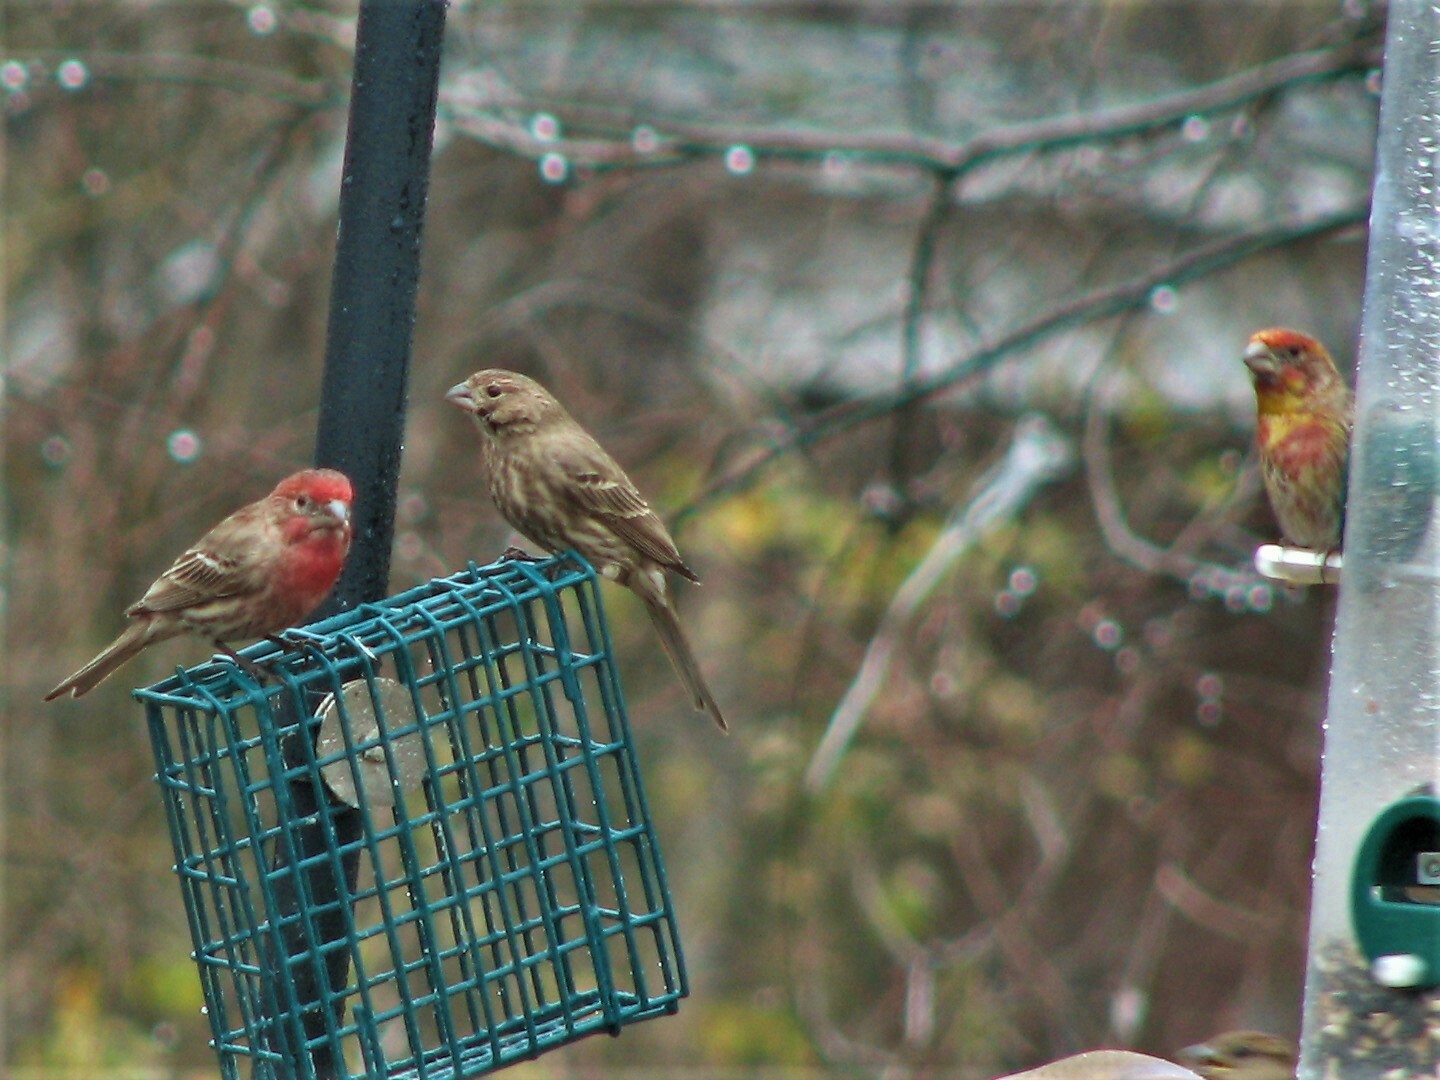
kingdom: Animalia
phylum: Chordata
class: Aves
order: Passeriformes
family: Fringillidae
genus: Haemorhous
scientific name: Haemorhous mexicanus
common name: House finch
